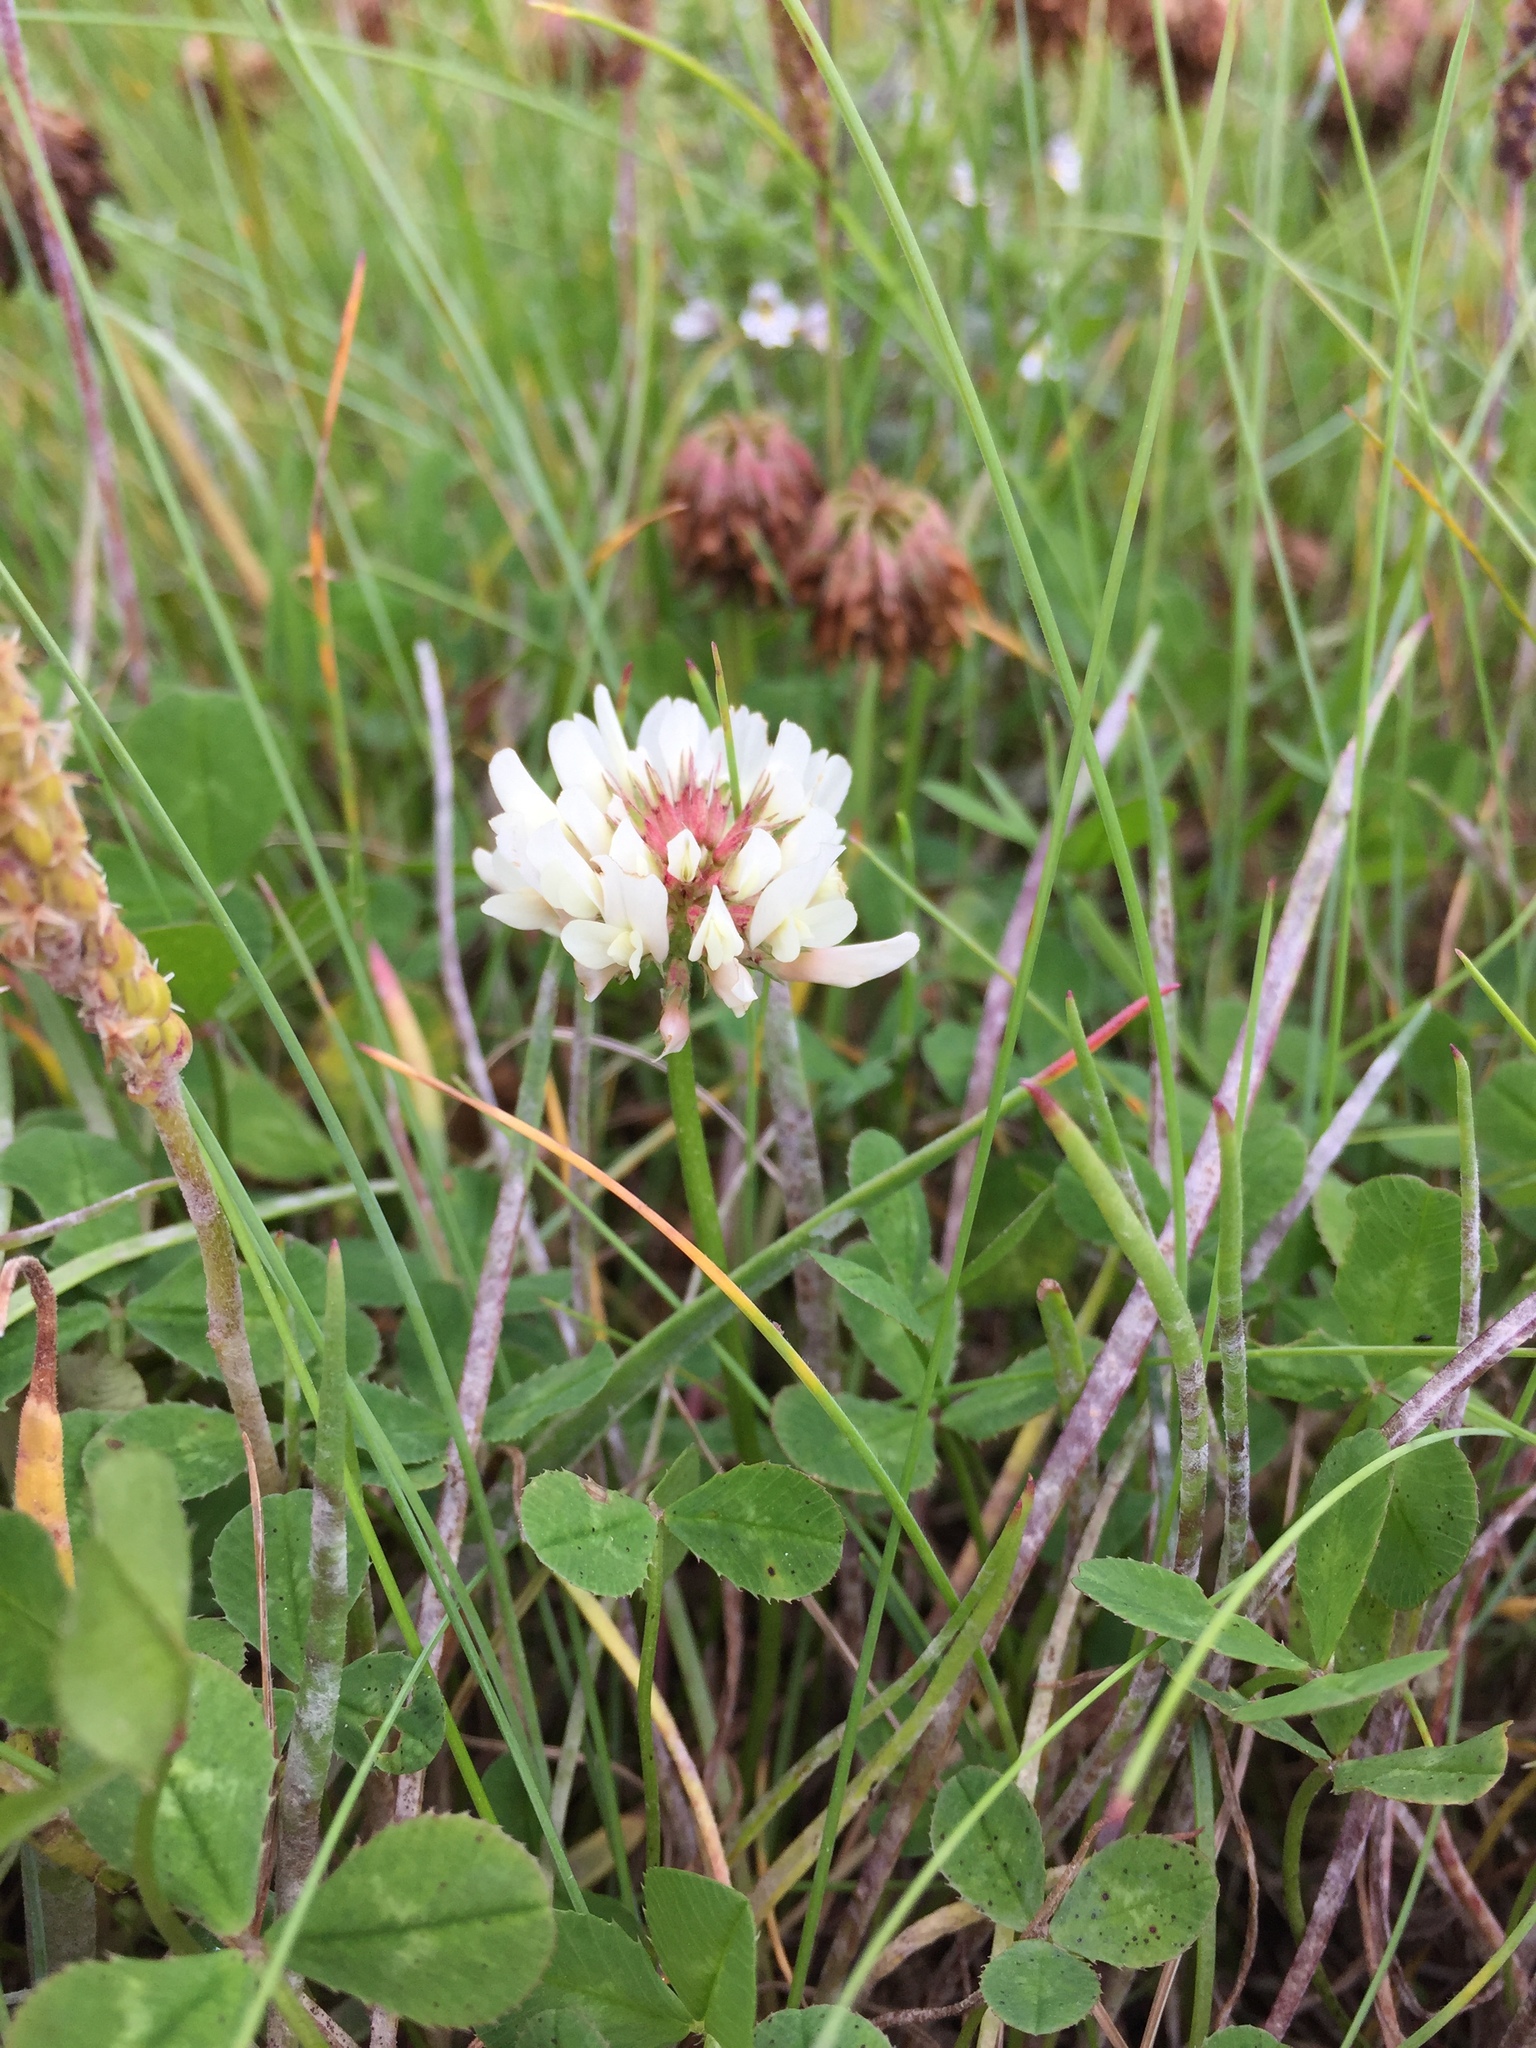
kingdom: Plantae
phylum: Tracheophyta
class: Magnoliopsida
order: Fabales
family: Fabaceae
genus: Trifolium
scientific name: Trifolium repens
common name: White clover
